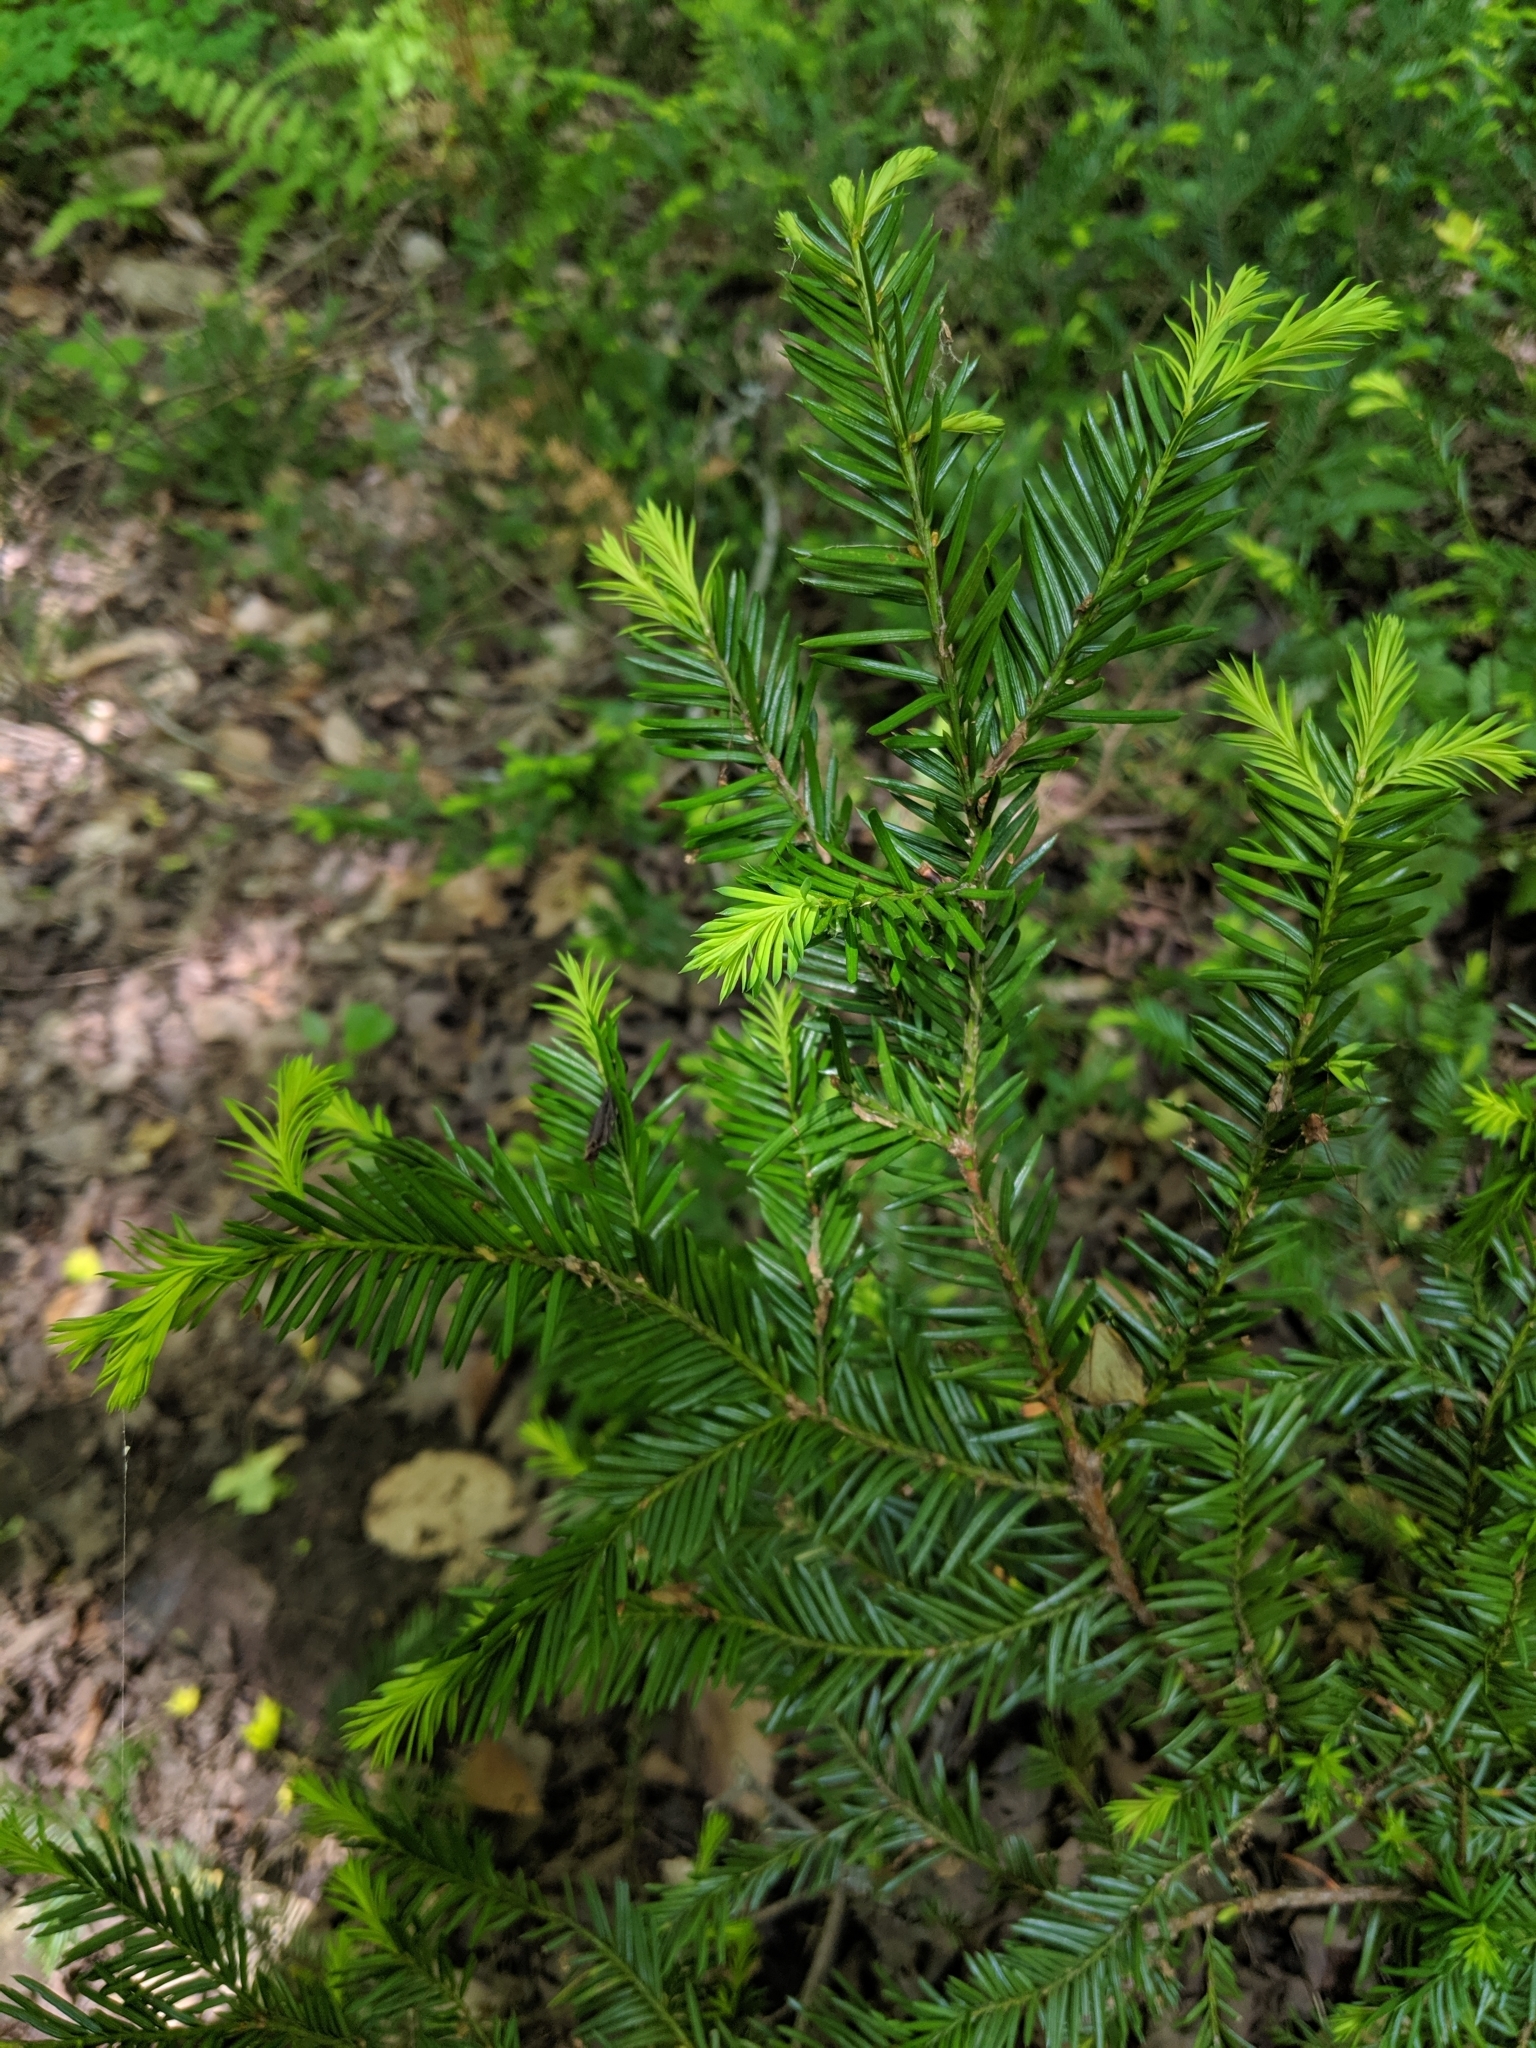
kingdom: Plantae
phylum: Tracheophyta
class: Pinopsida
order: Pinales
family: Taxaceae
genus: Taxus
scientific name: Taxus canadensis
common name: American yew
